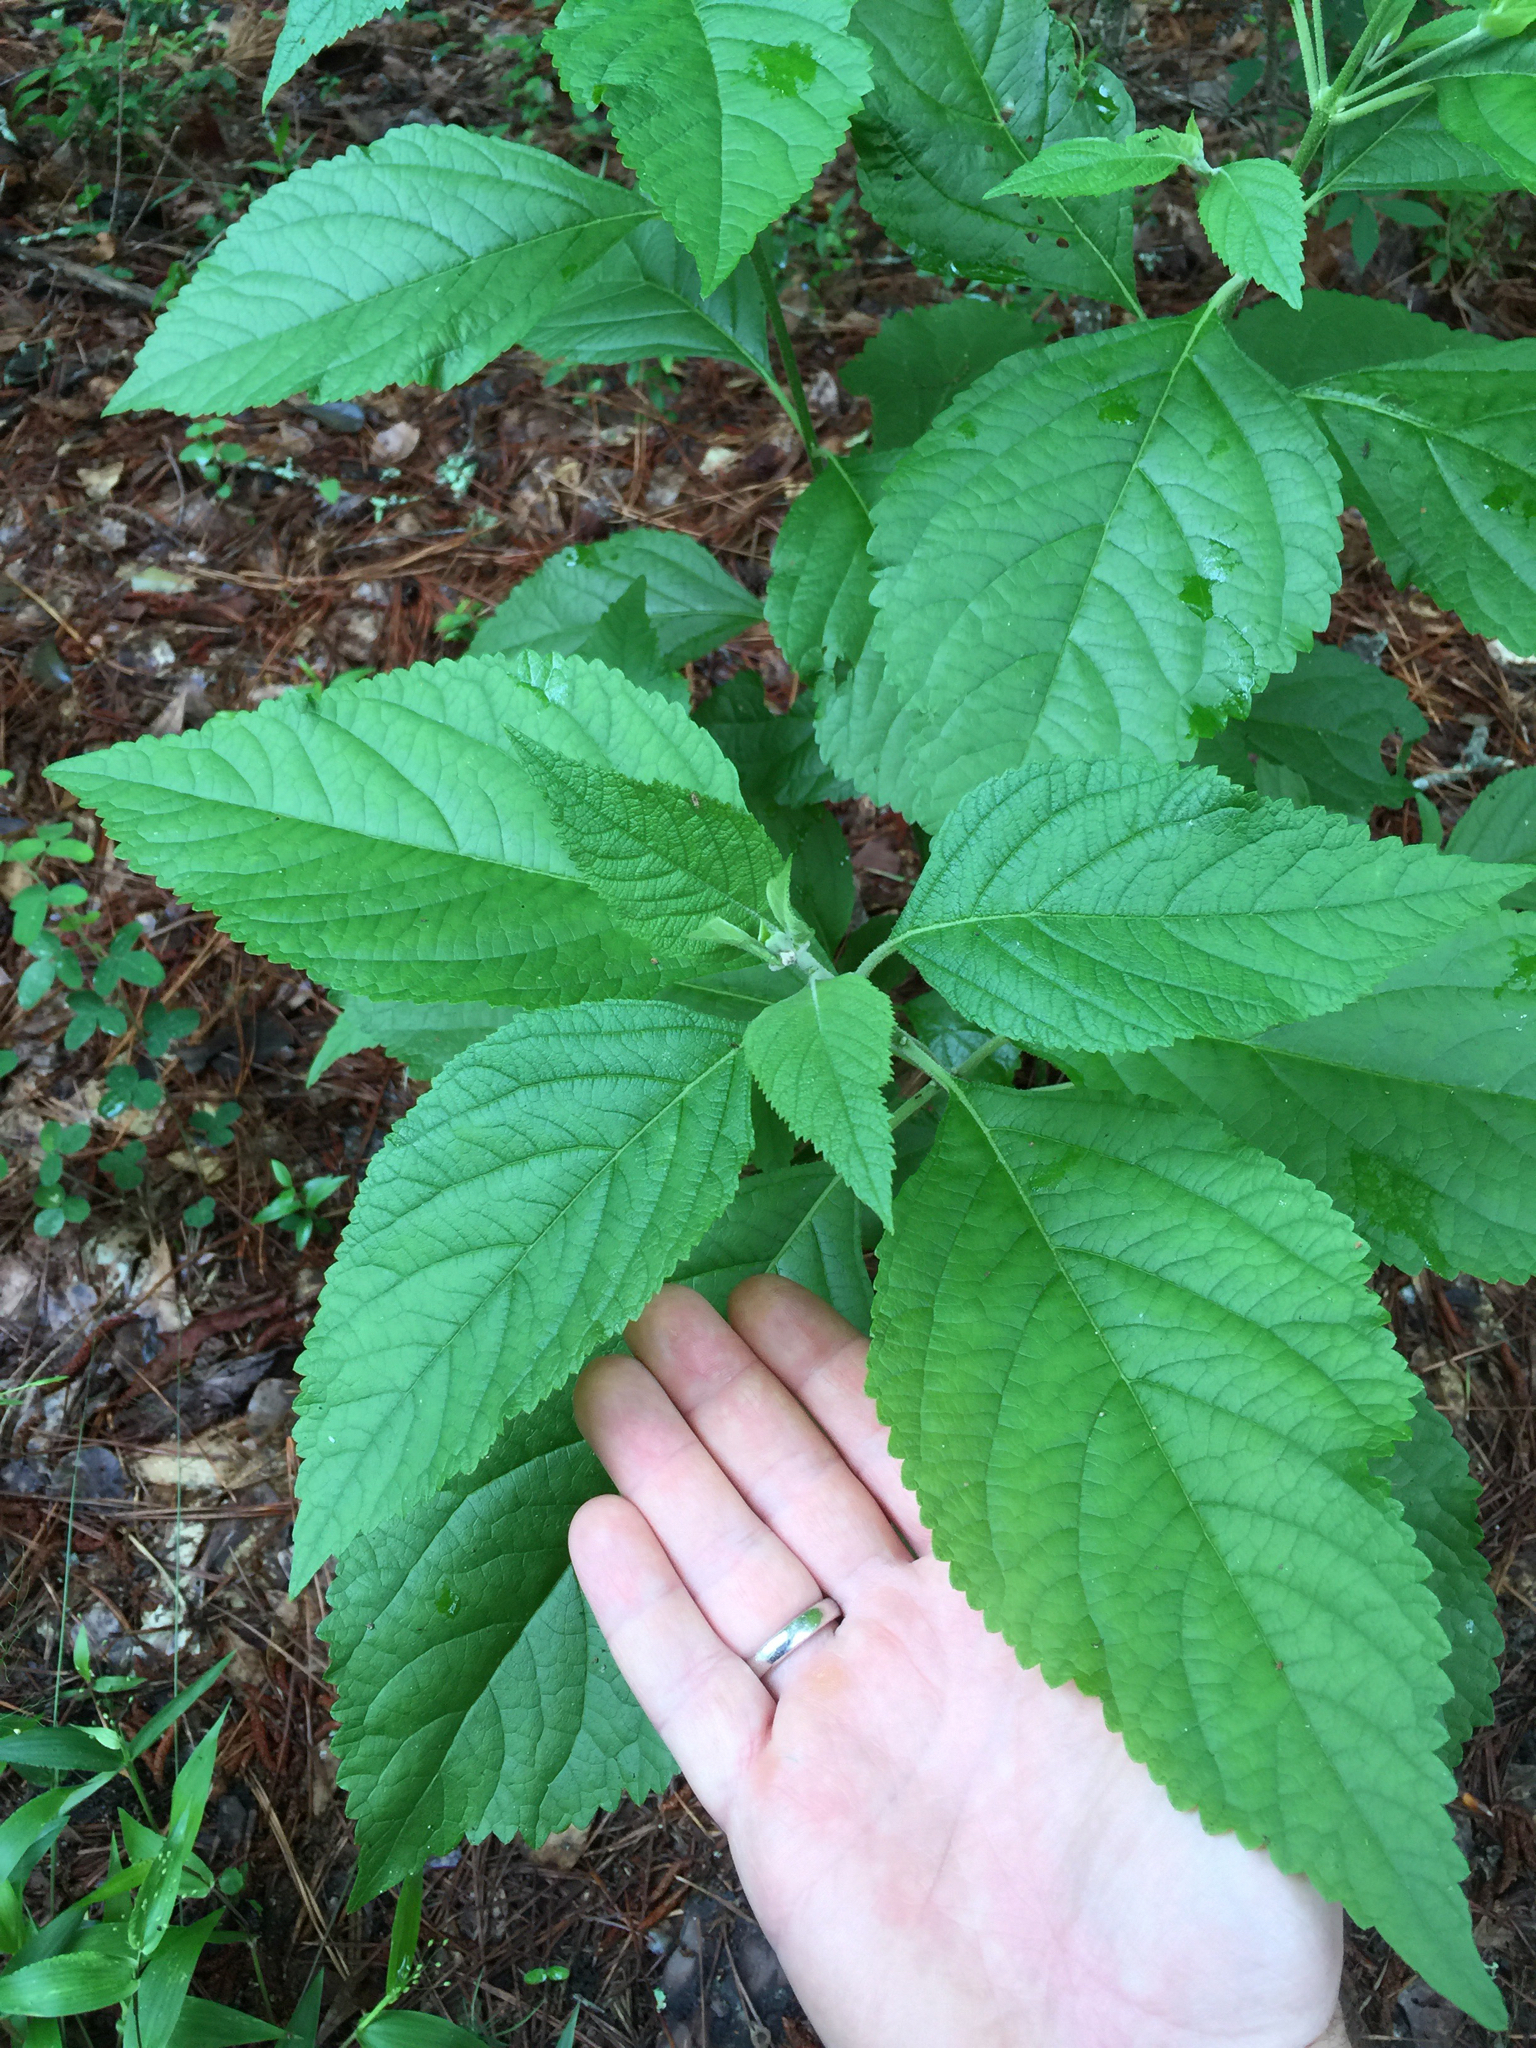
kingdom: Plantae
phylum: Tracheophyta
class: Magnoliopsida
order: Lamiales
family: Lamiaceae
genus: Callicarpa
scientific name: Callicarpa americana
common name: American beautyberry
